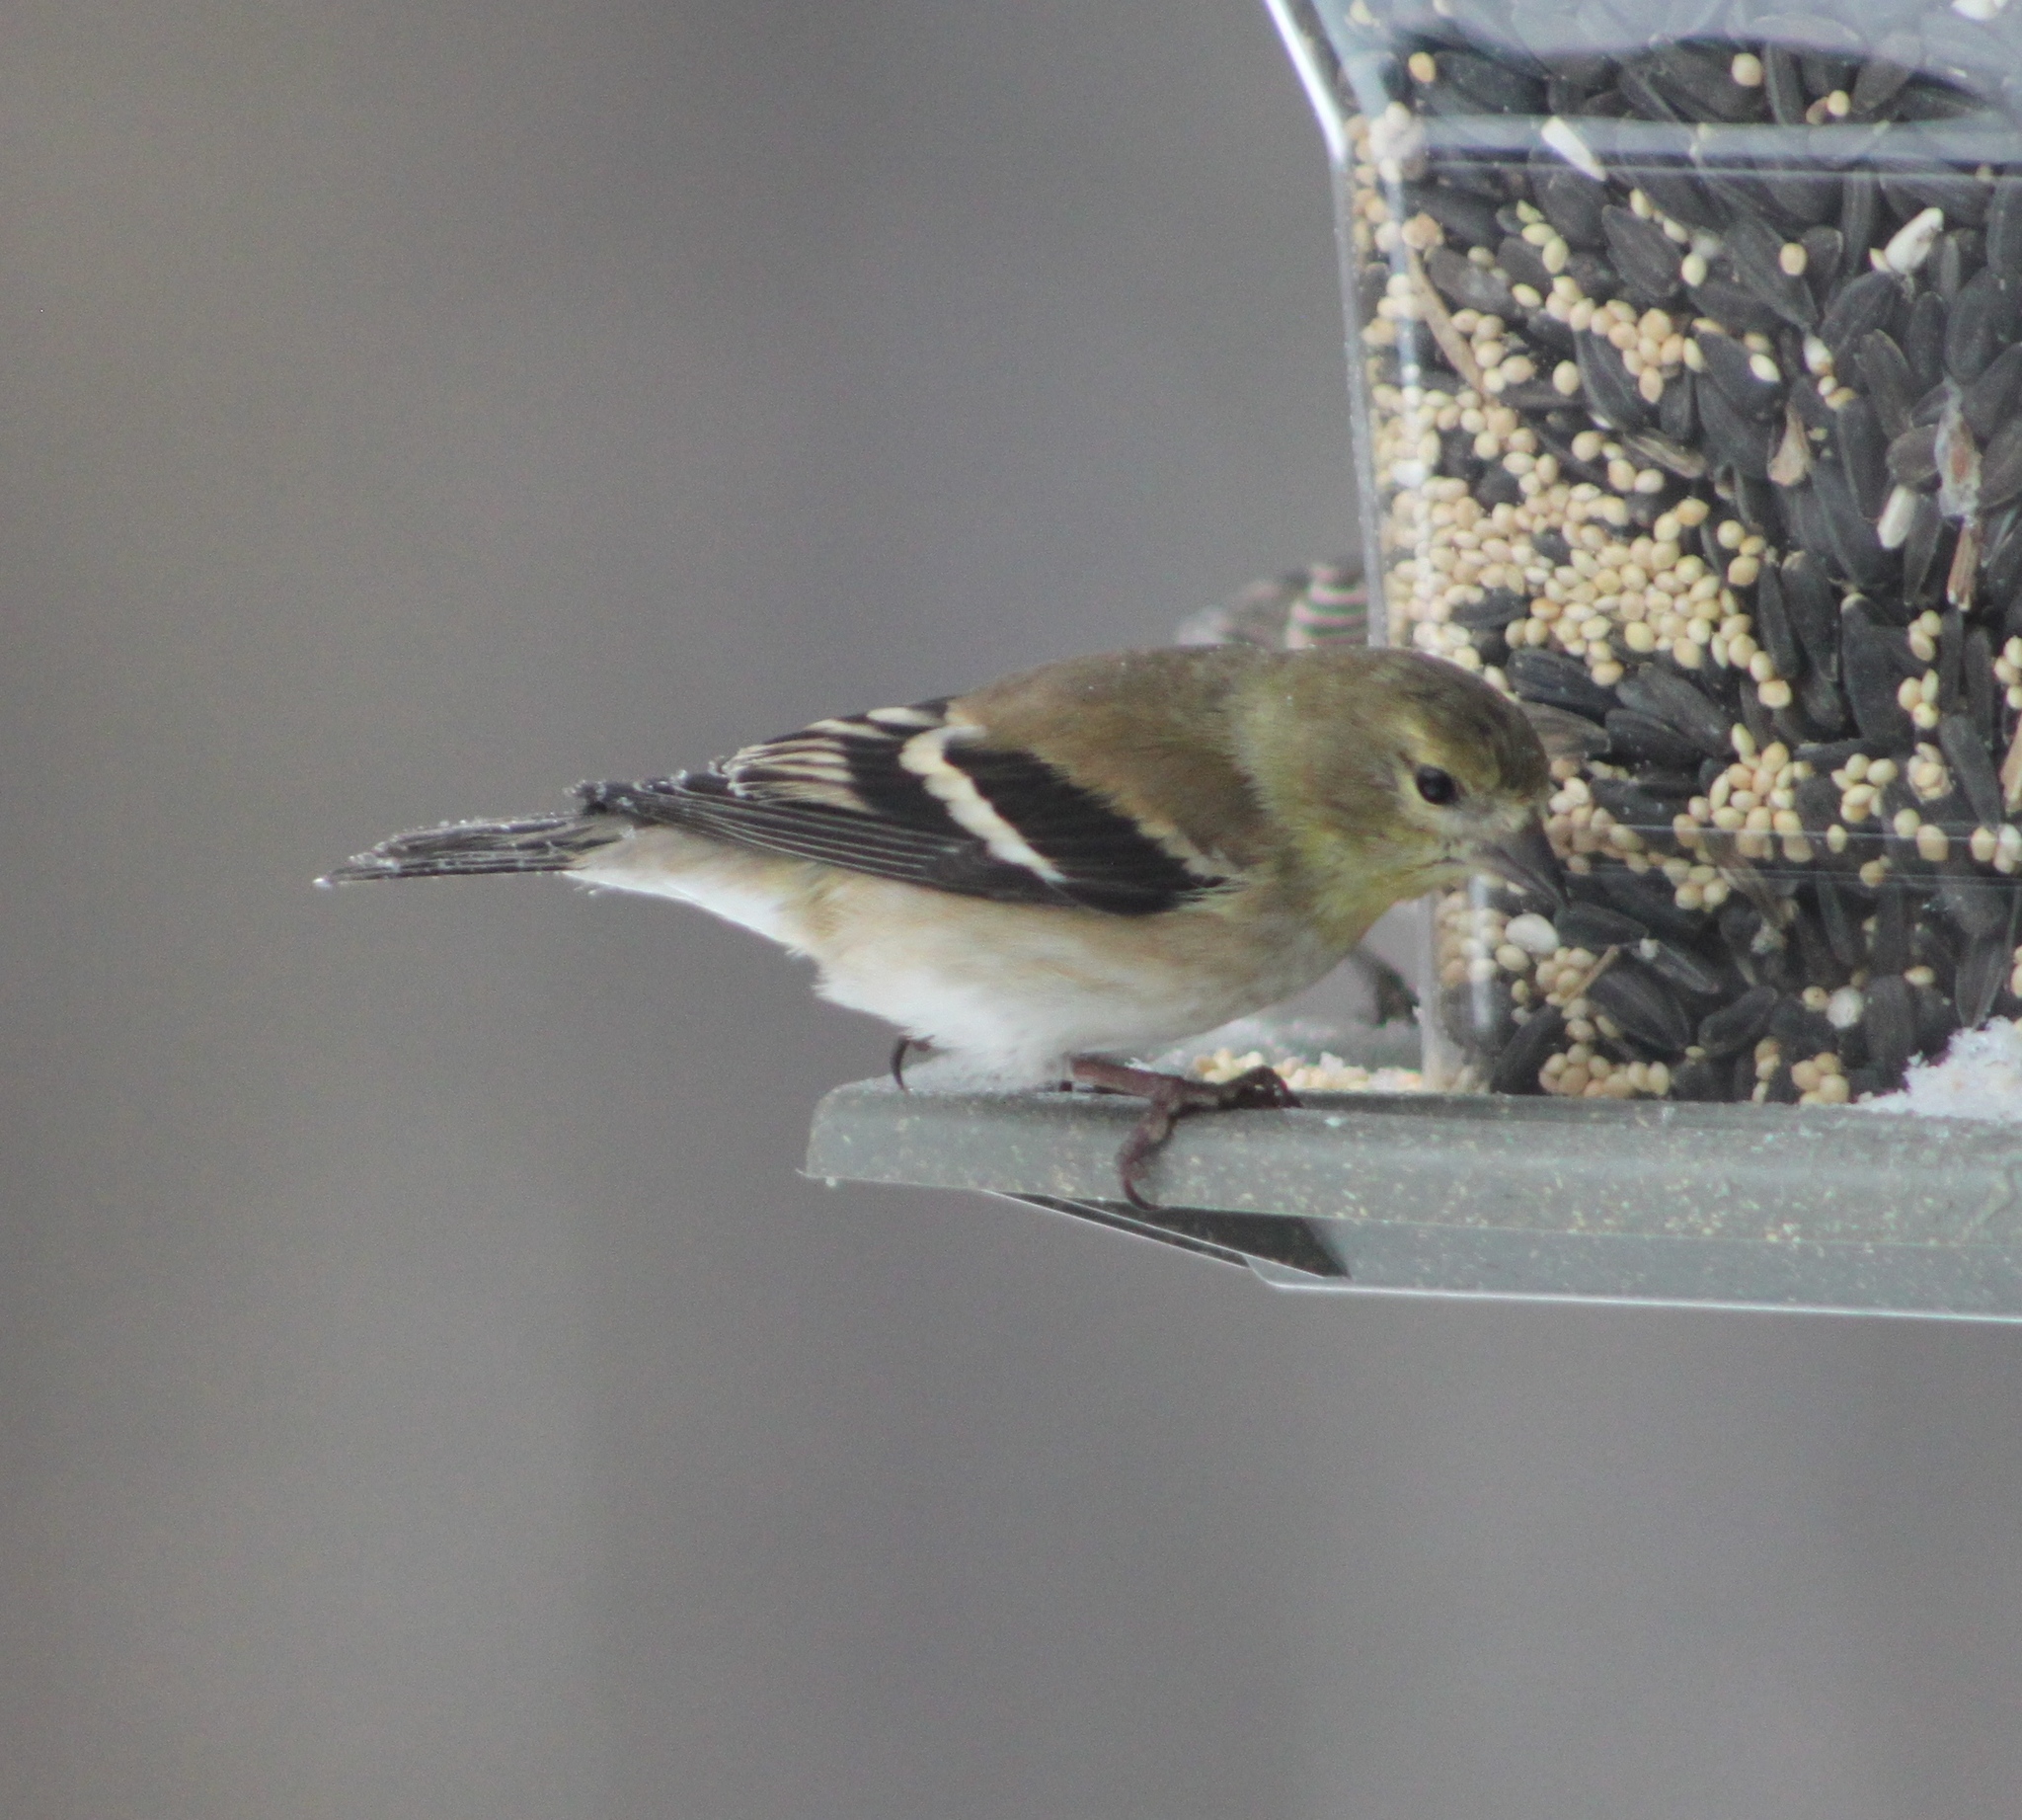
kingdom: Animalia
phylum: Chordata
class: Aves
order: Passeriformes
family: Fringillidae
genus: Spinus
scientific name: Spinus tristis
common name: American goldfinch
